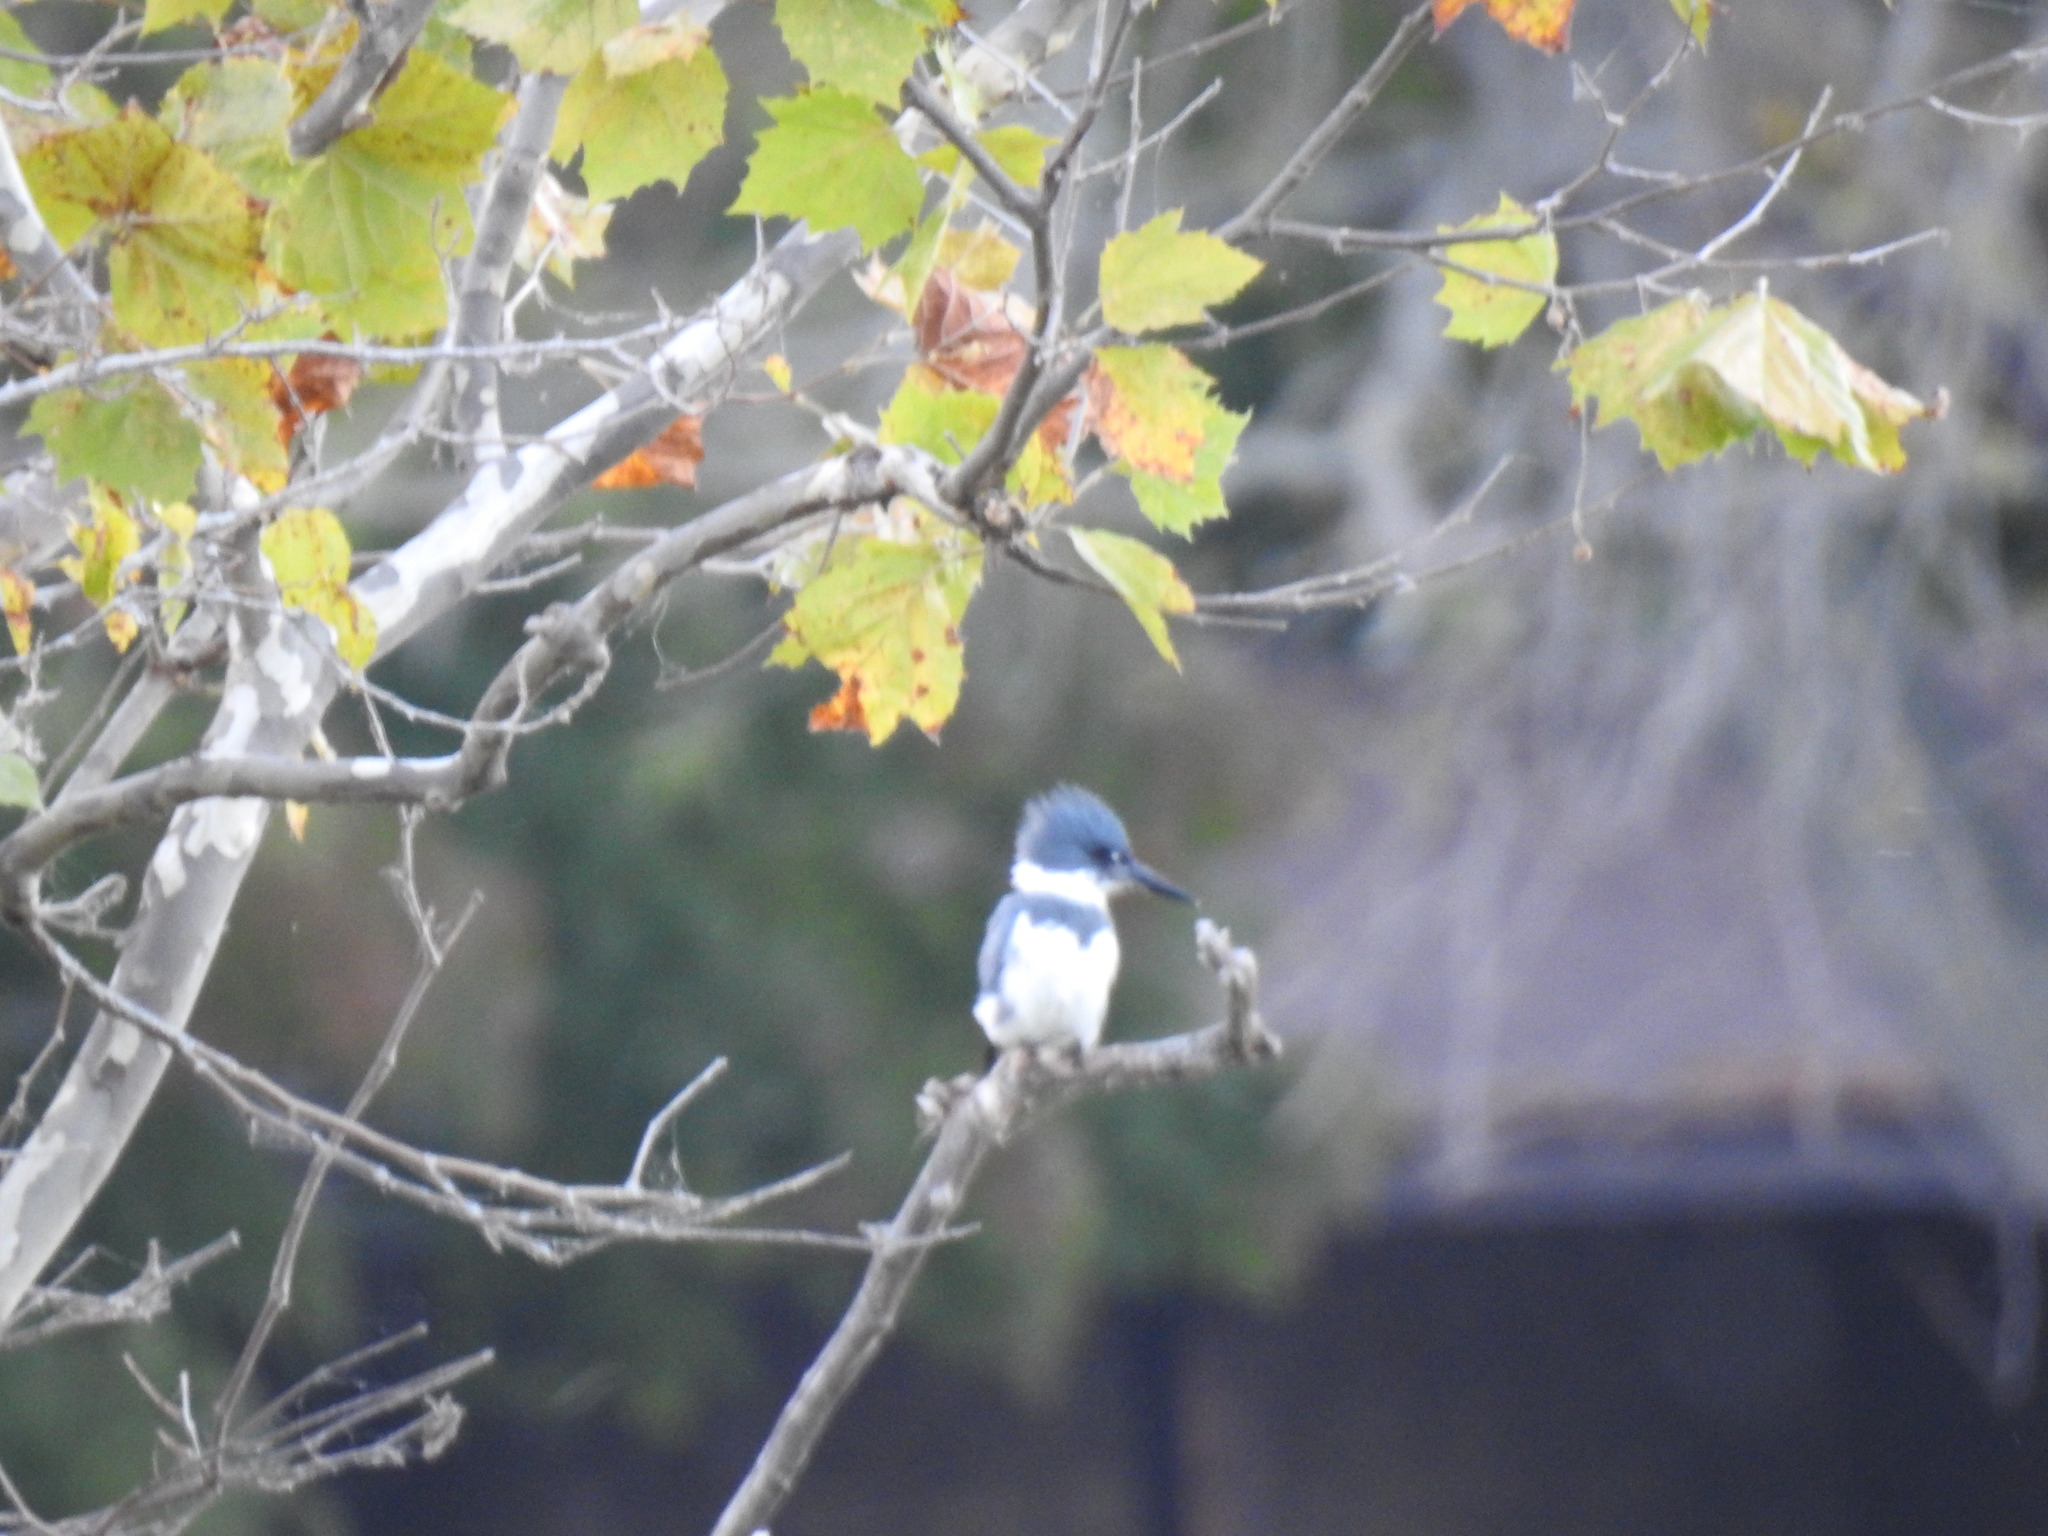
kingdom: Animalia
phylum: Chordata
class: Aves
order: Coraciiformes
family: Alcedinidae
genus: Megaceryle
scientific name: Megaceryle alcyon
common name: Belted kingfisher
